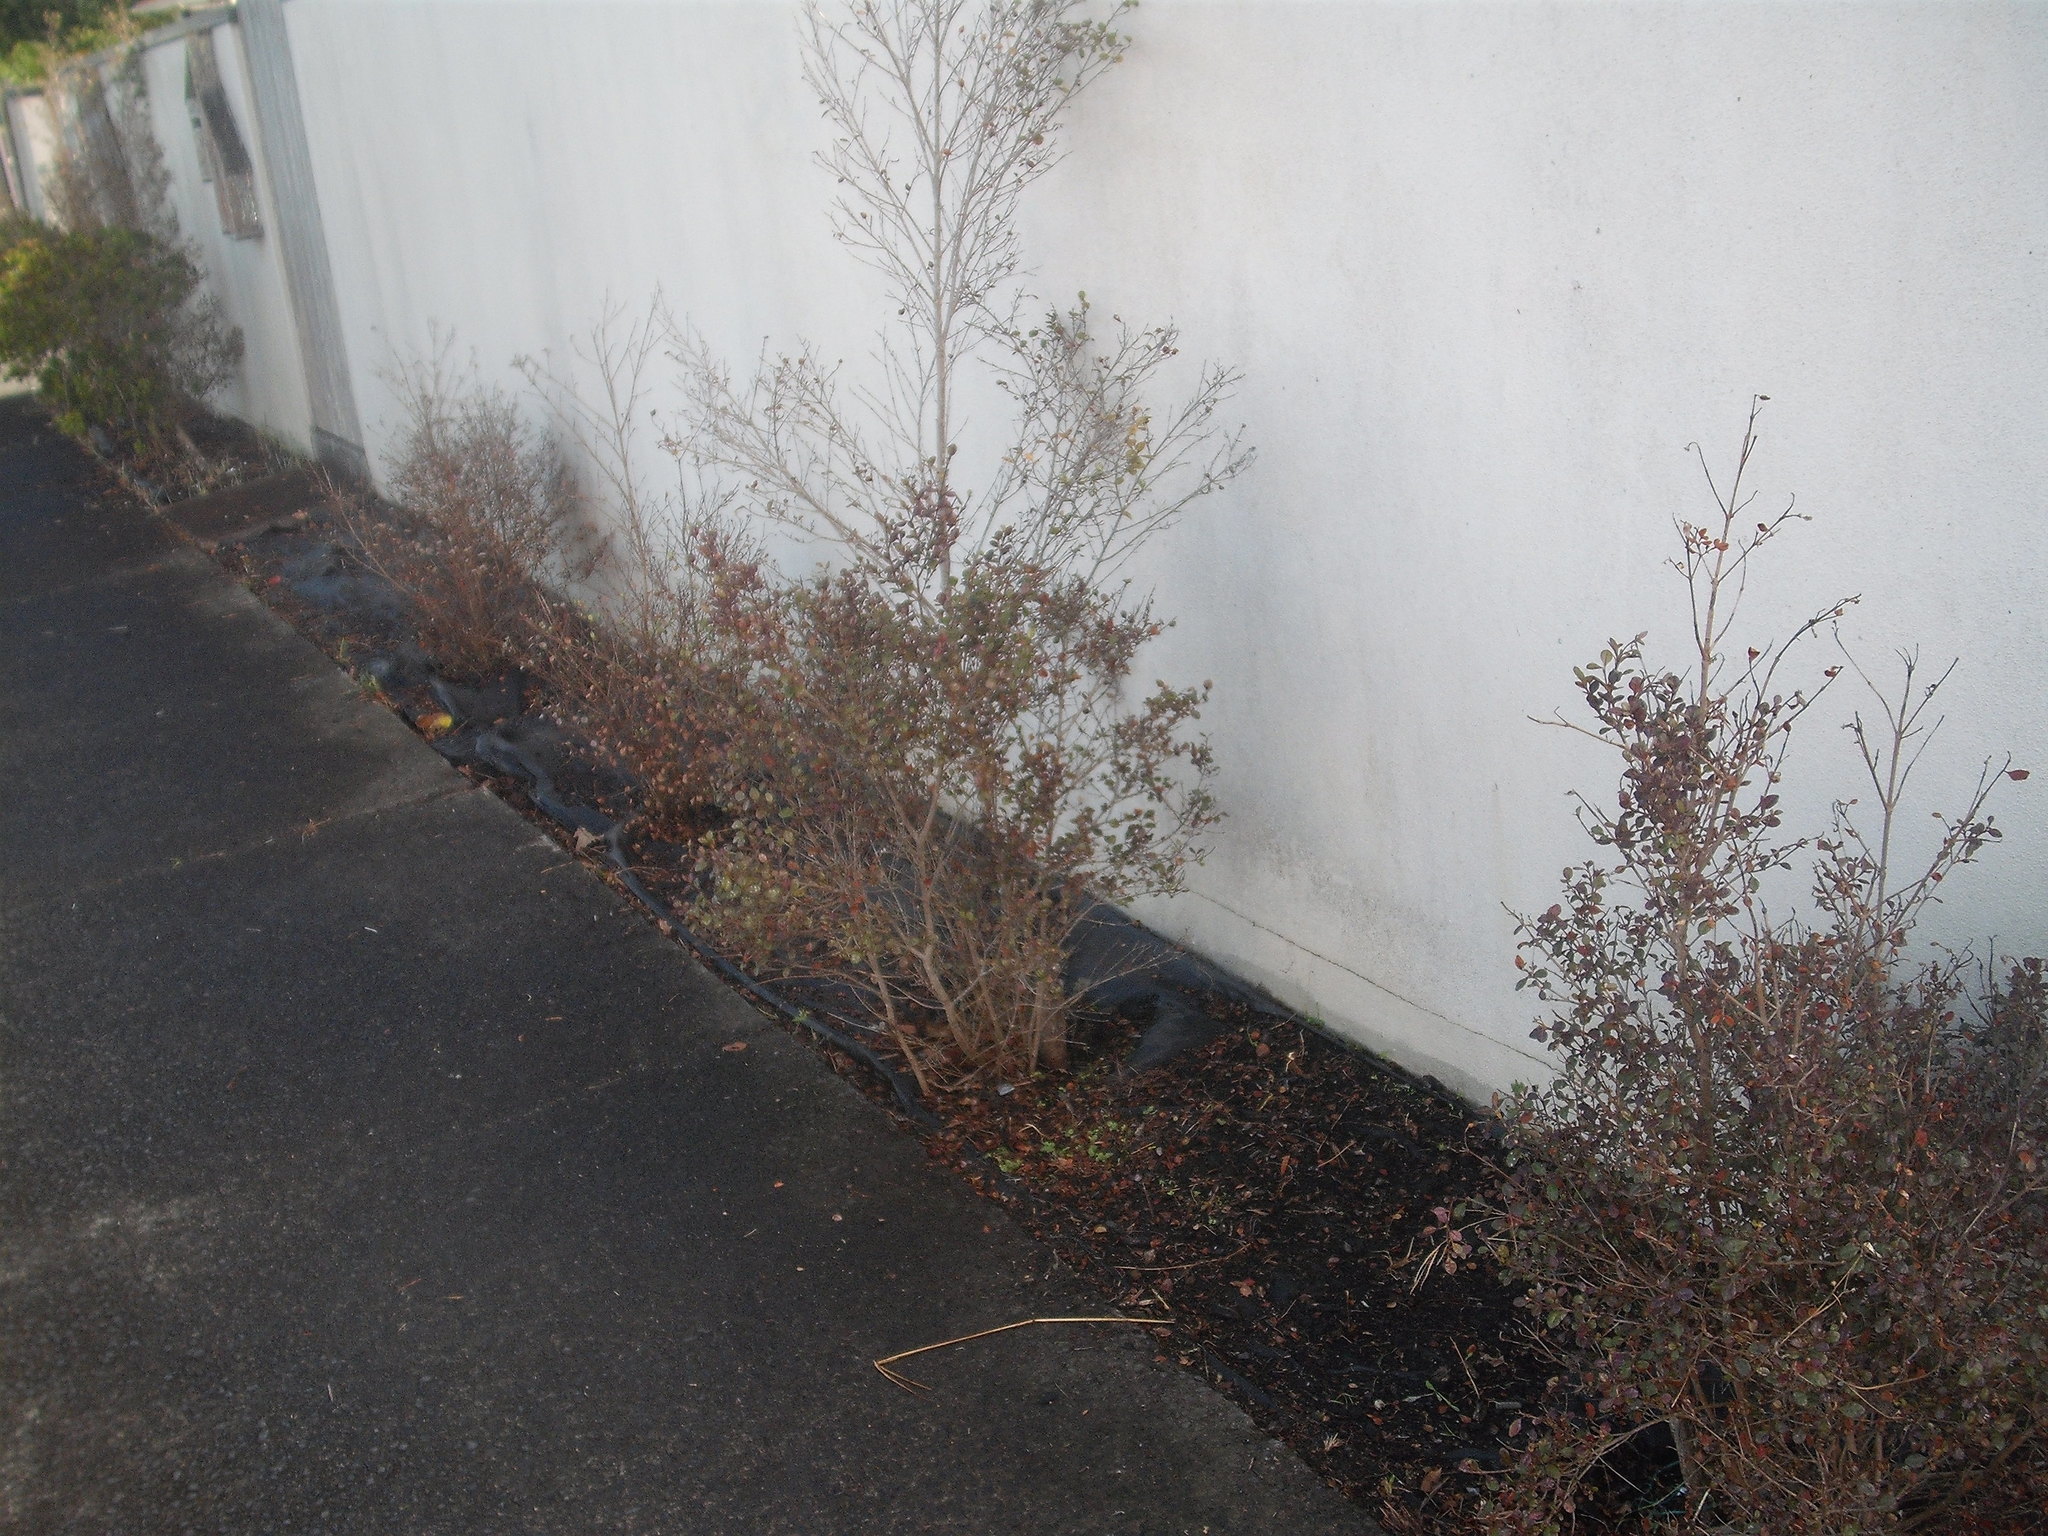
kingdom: Fungi
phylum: Basidiomycota
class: Pucciniomycetes
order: Pucciniales
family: Sphaerophragmiaceae
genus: Austropuccinia
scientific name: Austropuccinia psidii
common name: Myrtle rust
